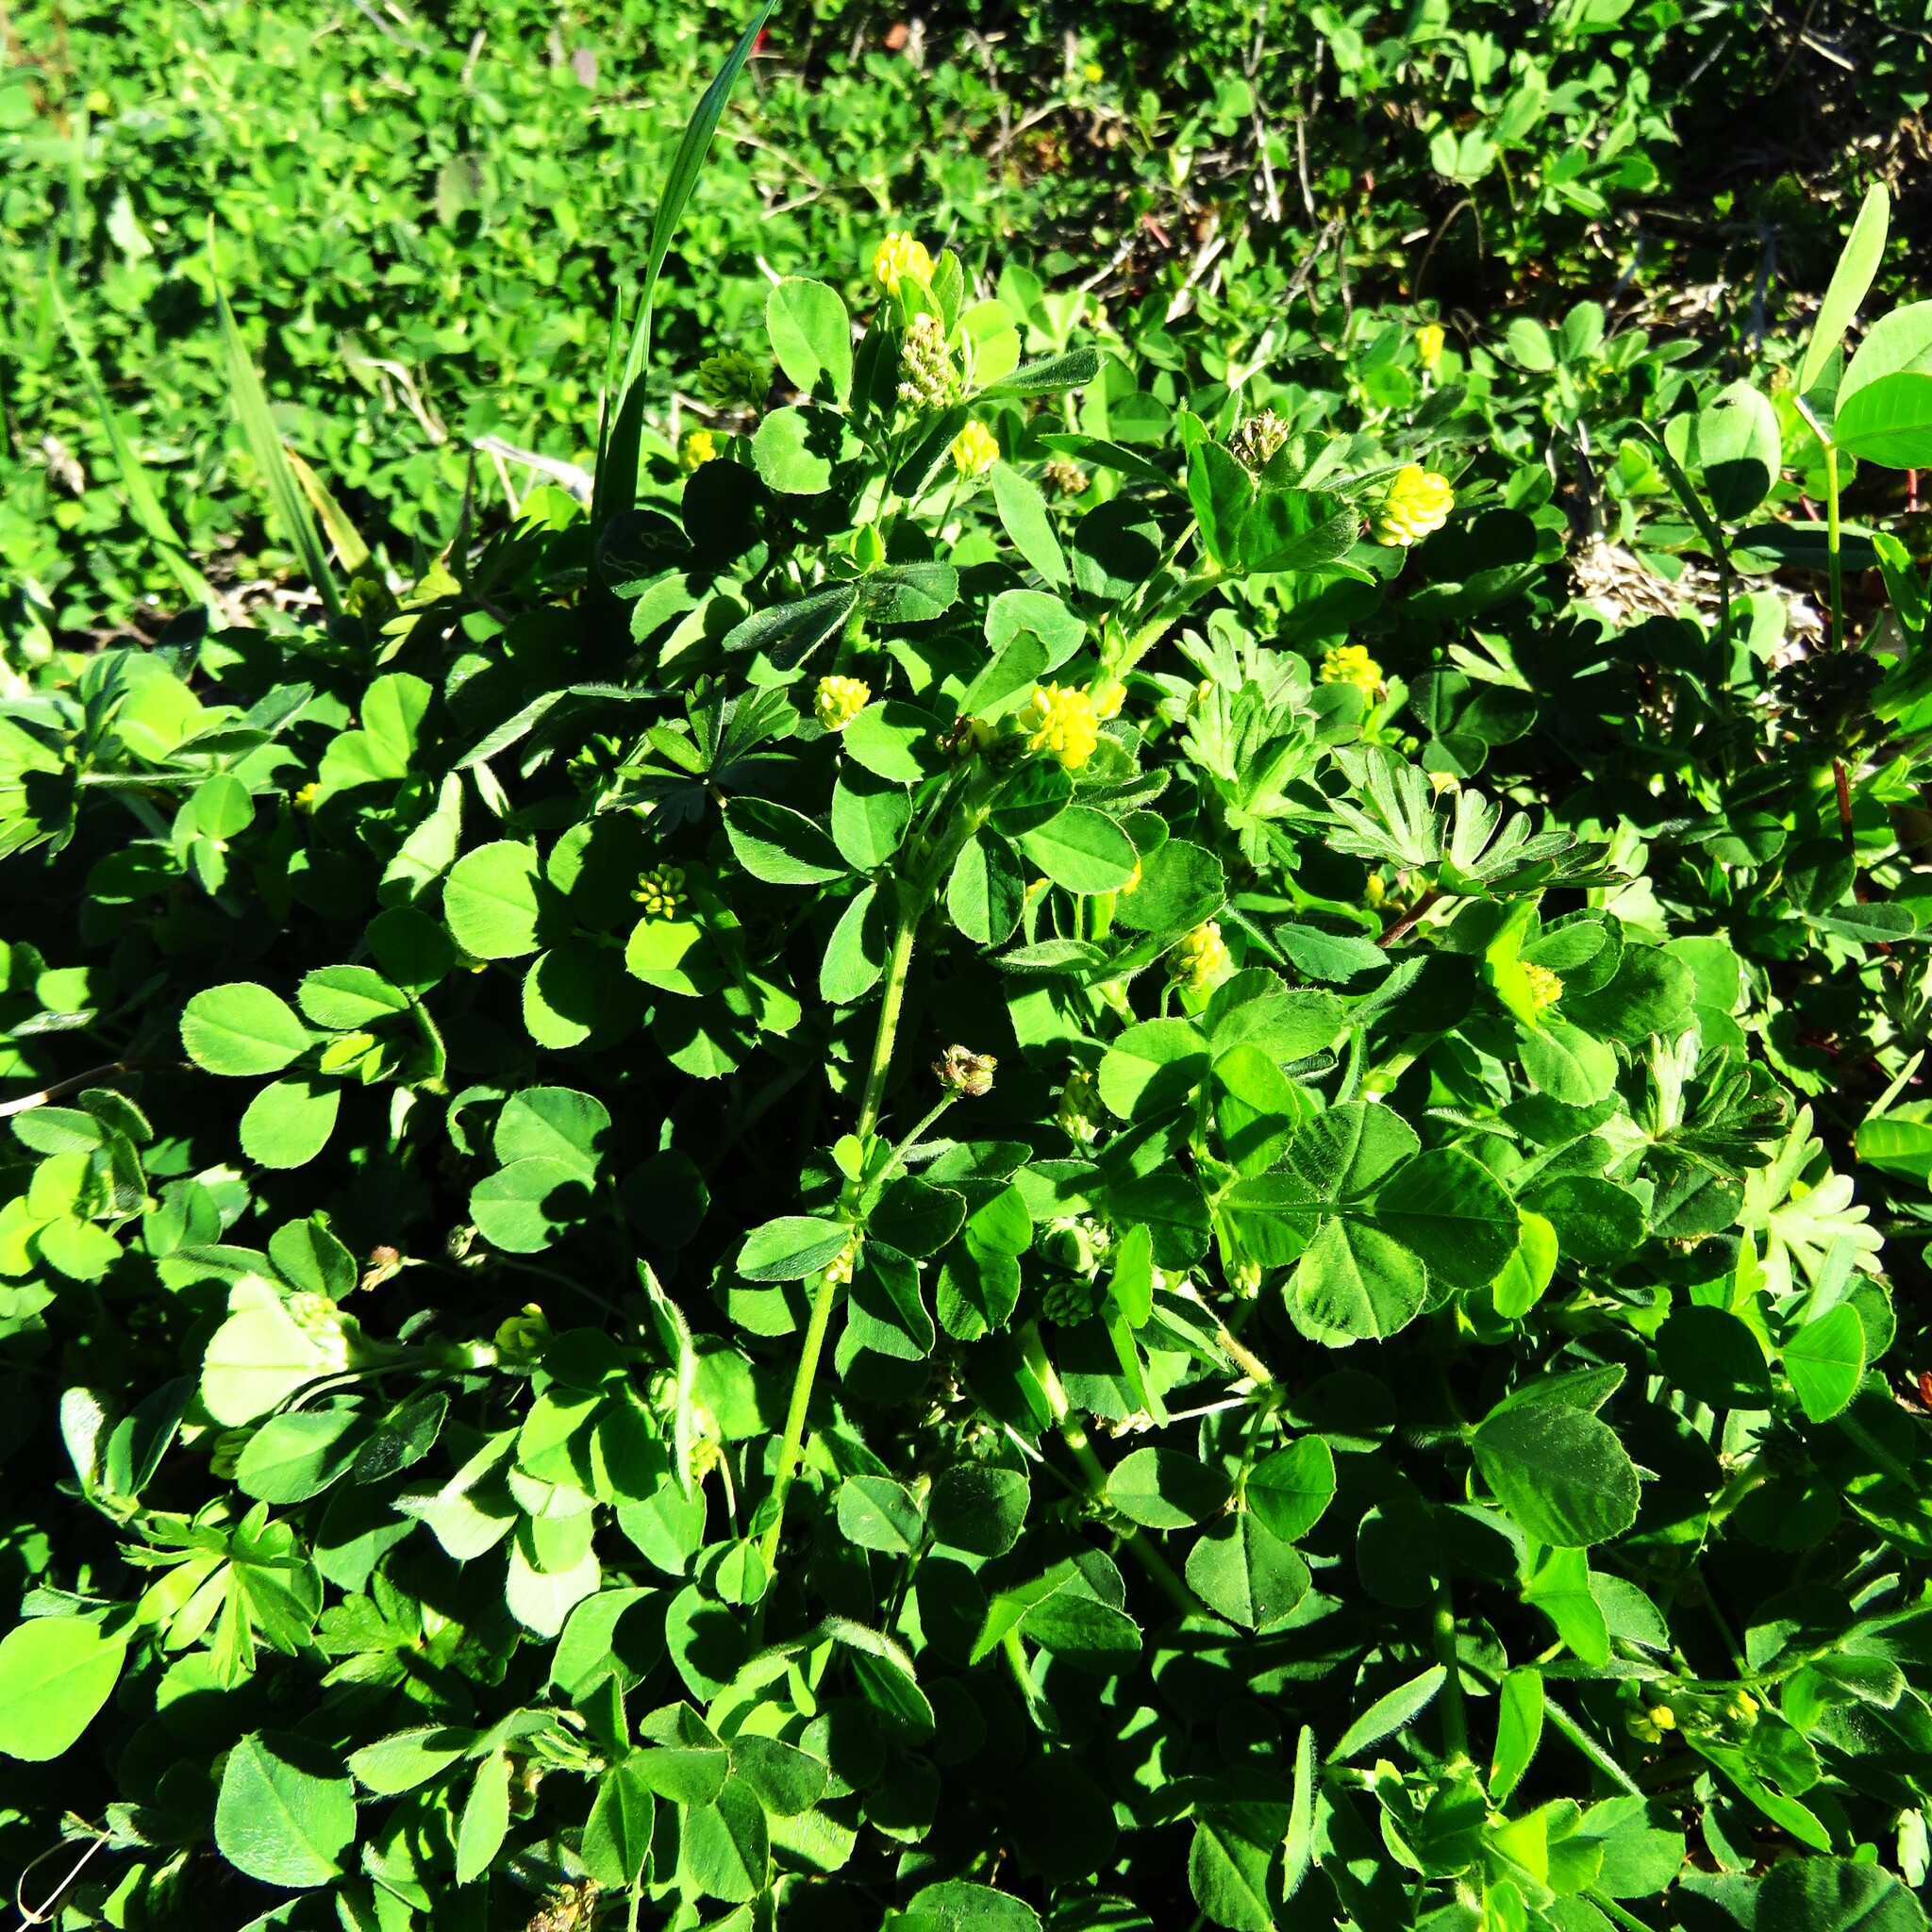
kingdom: Plantae
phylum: Tracheophyta
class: Magnoliopsida
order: Fabales
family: Fabaceae
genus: Medicago
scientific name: Medicago lupulina
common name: Black medick
